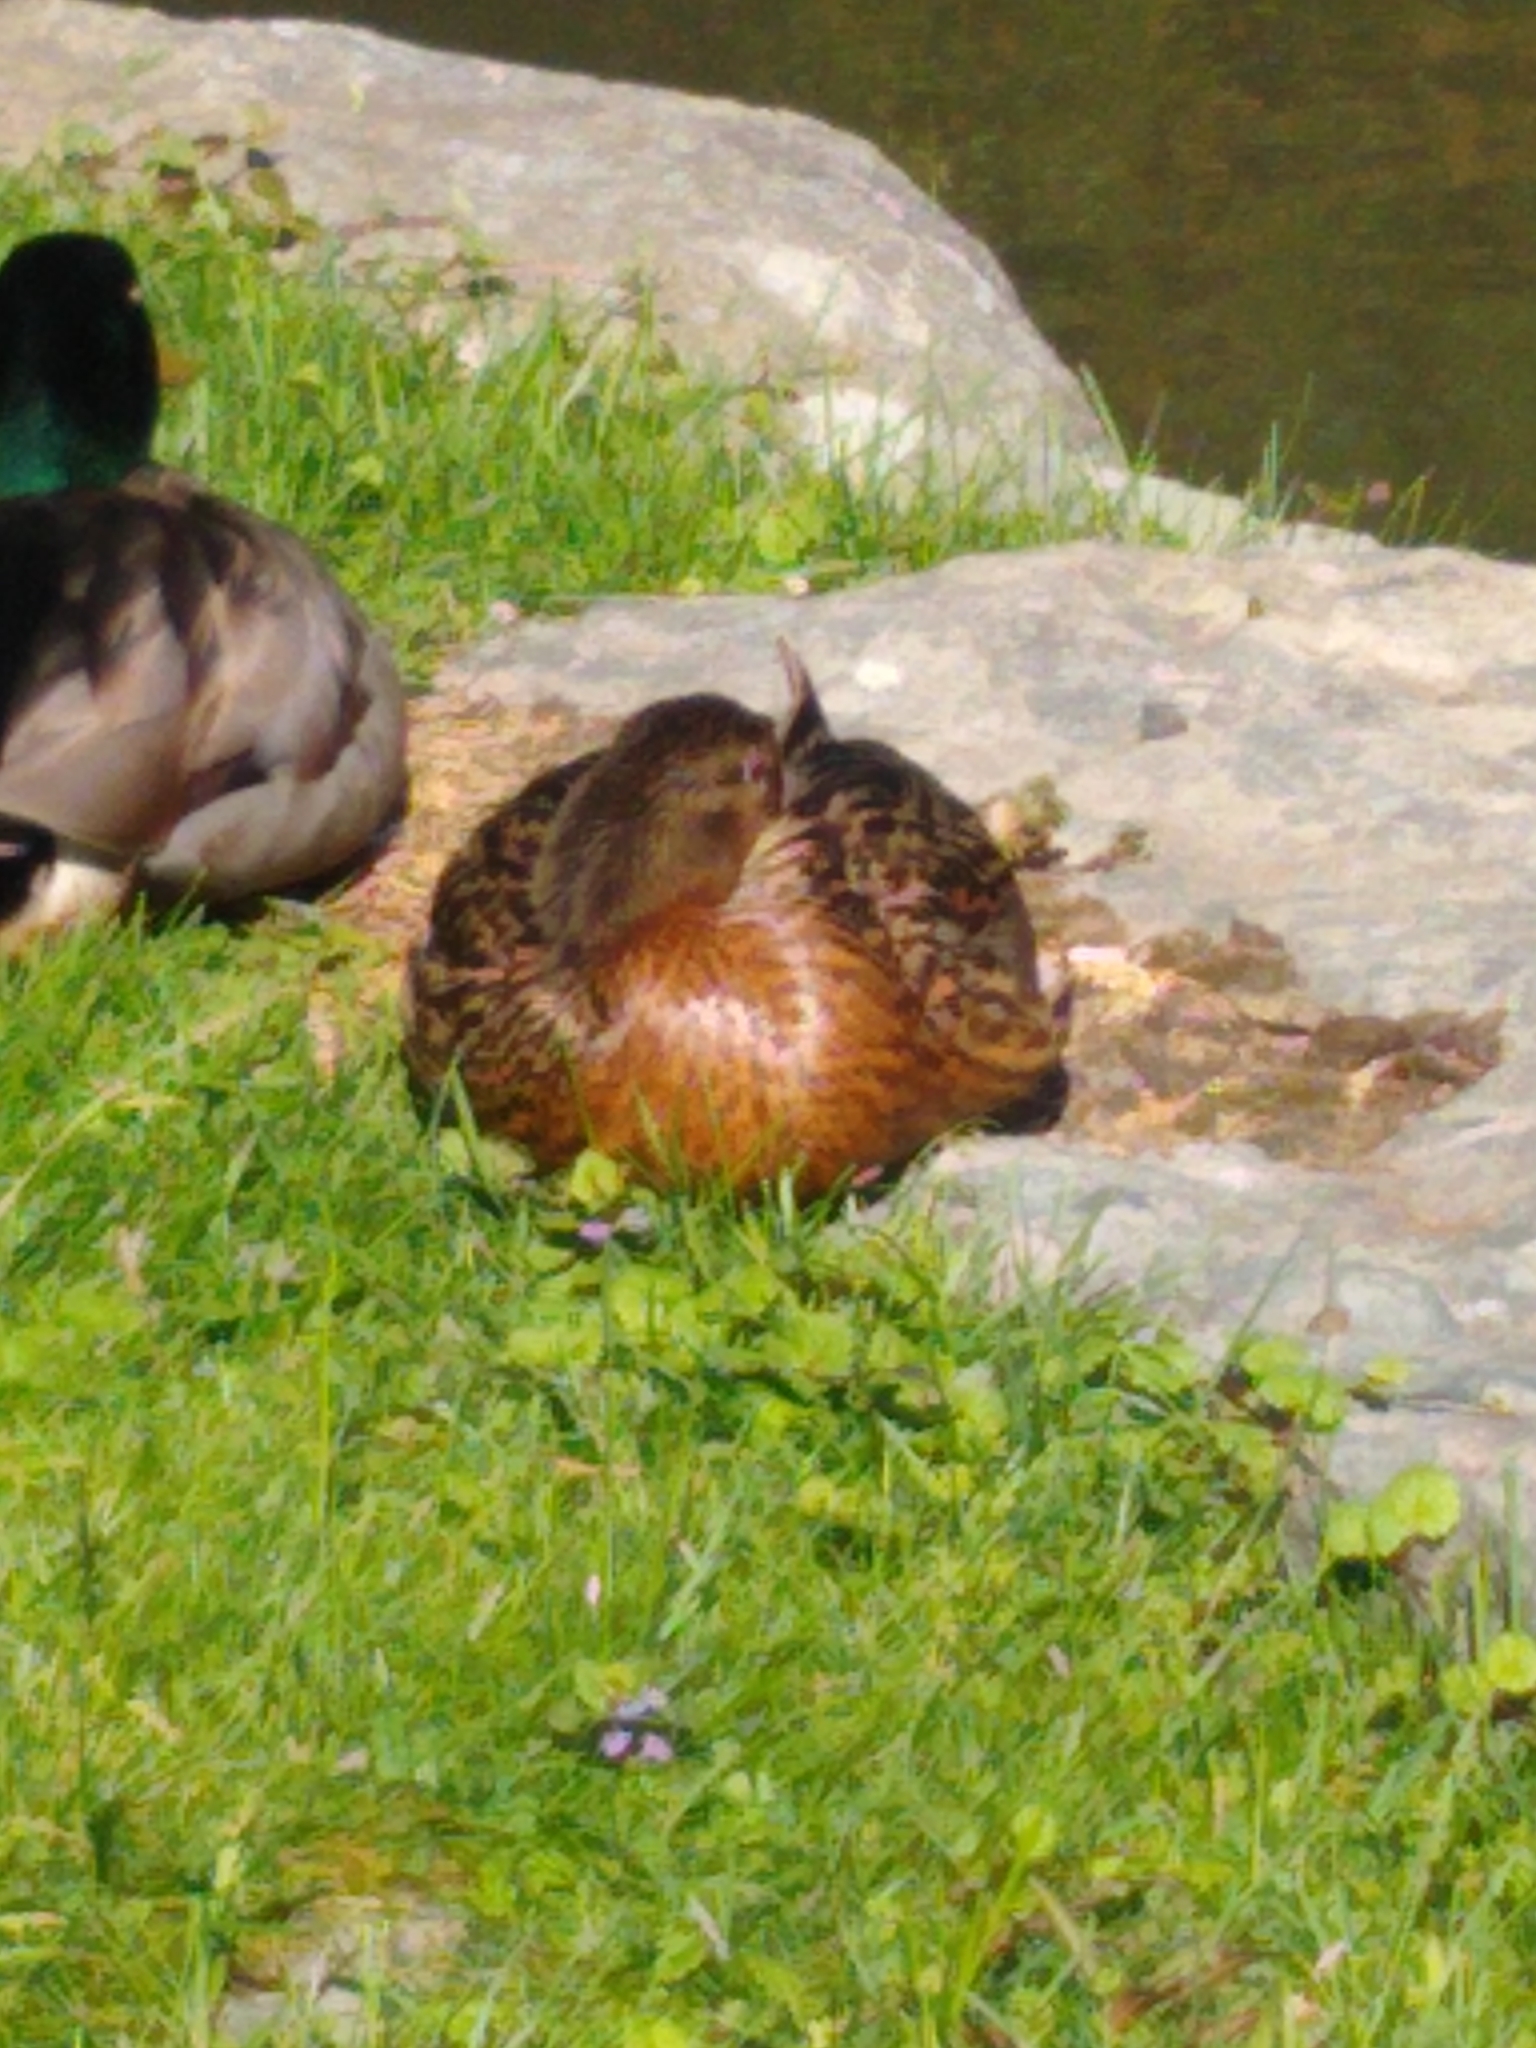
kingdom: Animalia
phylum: Chordata
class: Aves
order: Anseriformes
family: Anatidae
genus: Anas
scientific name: Anas platyrhynchos
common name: Mallard
